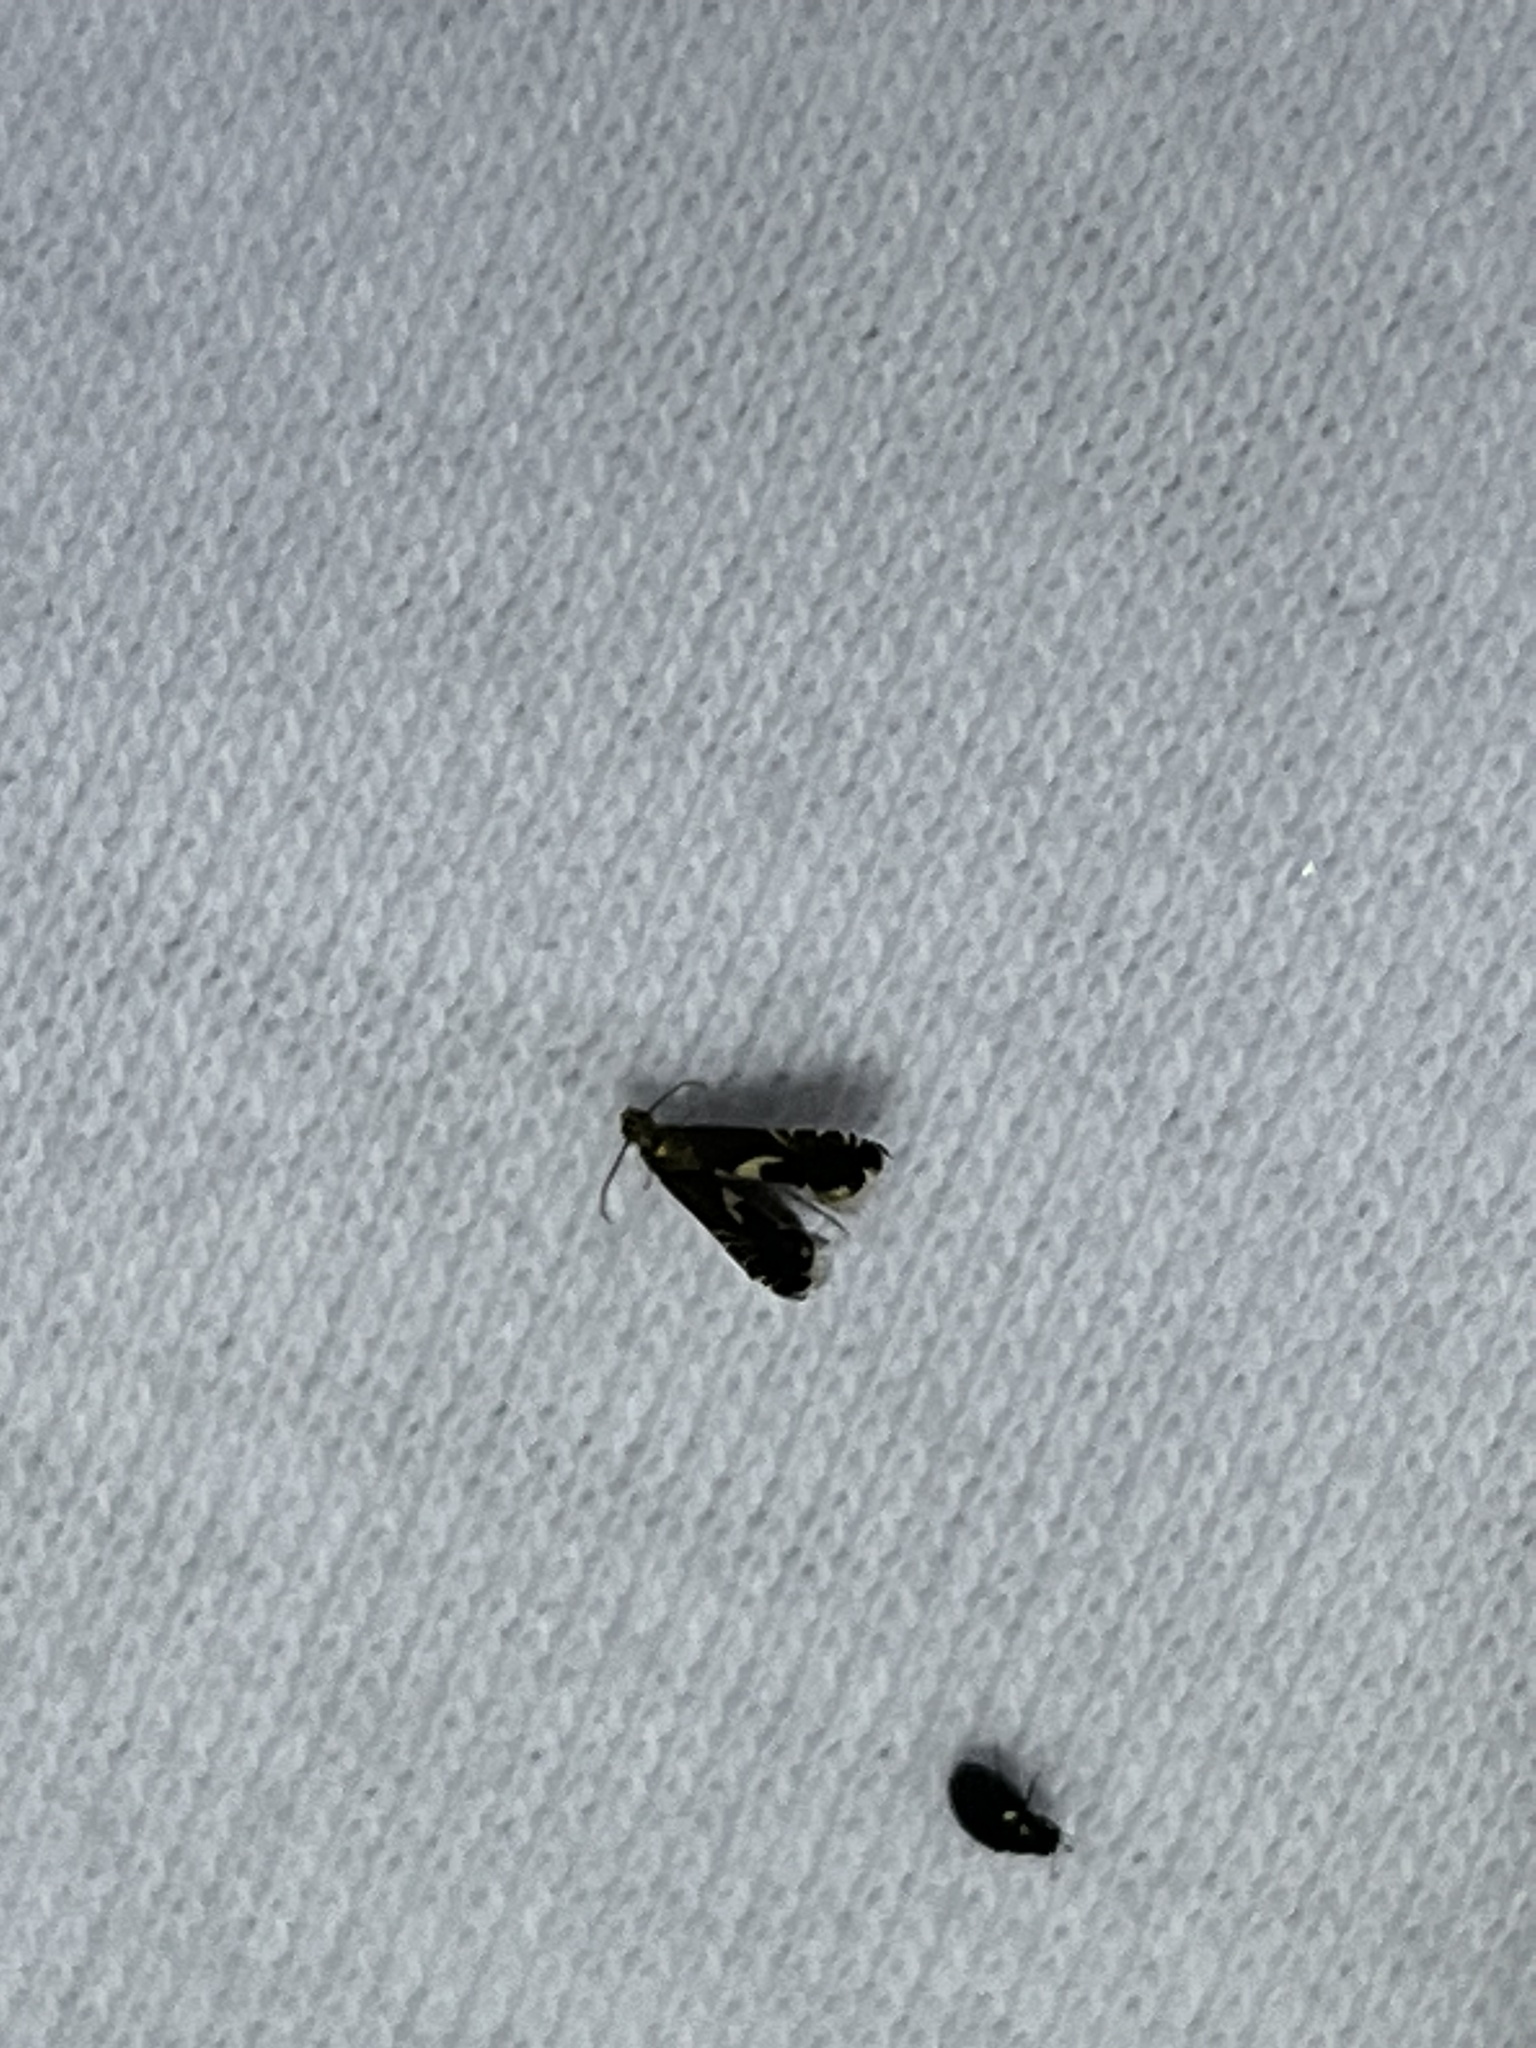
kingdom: Animalia
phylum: Arthropoda
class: Insecta
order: Lepidoptera
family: Glyphipterigidae
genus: Glyphipterix
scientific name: Glyphipterix Diploschizia impigritella
